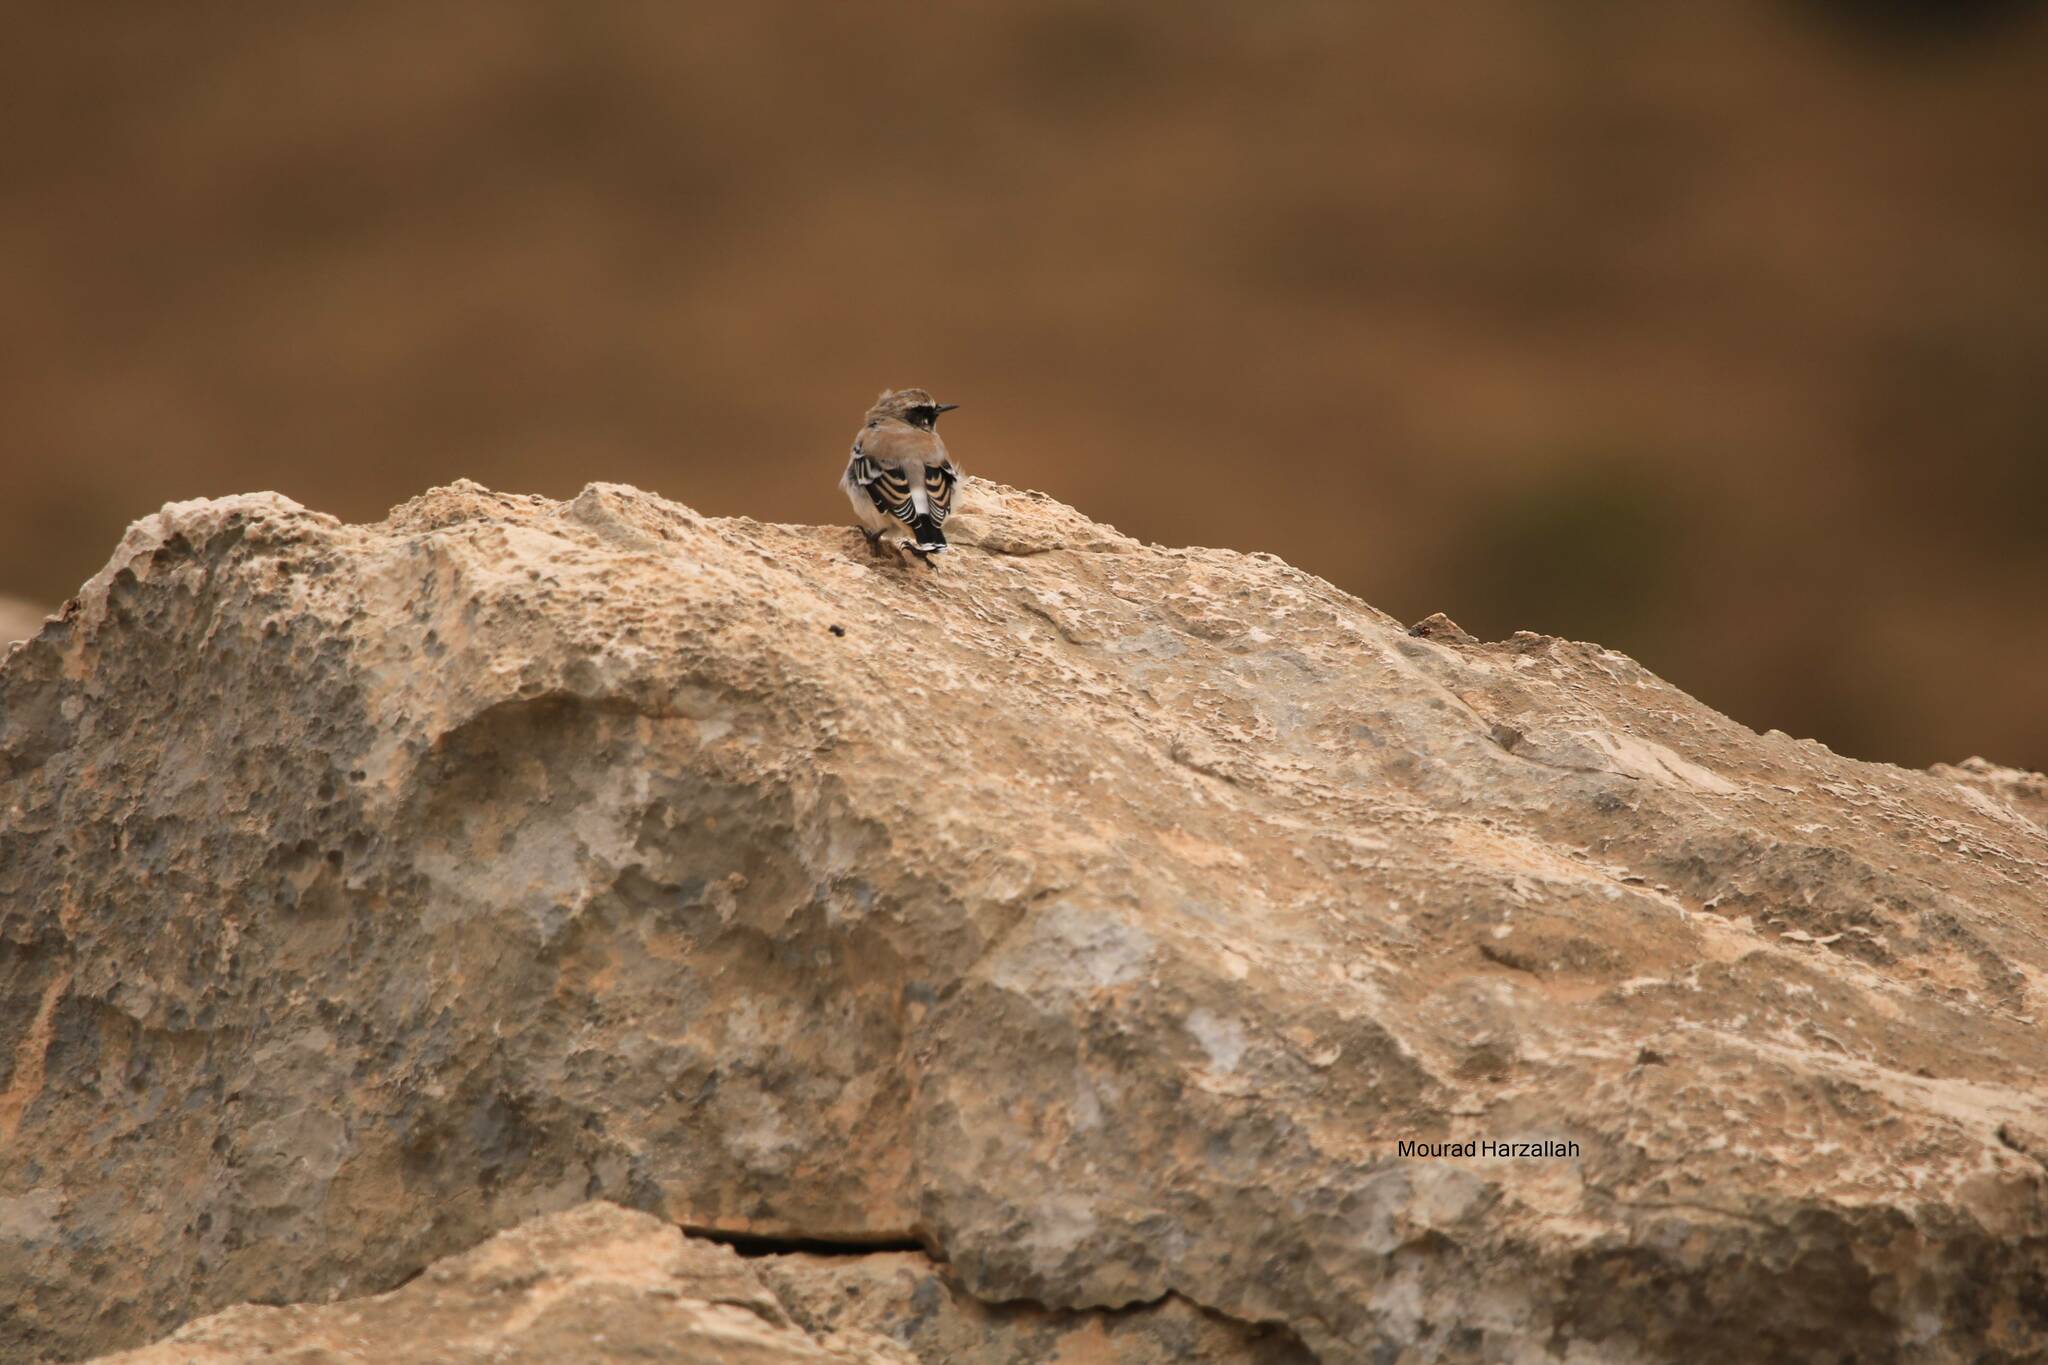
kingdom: Animalia
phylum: Chordata
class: Aves
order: Passeriformes
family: Muscicapidae
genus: Oenanthe
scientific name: Oenanthe oenanthe
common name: Northern wheatear
